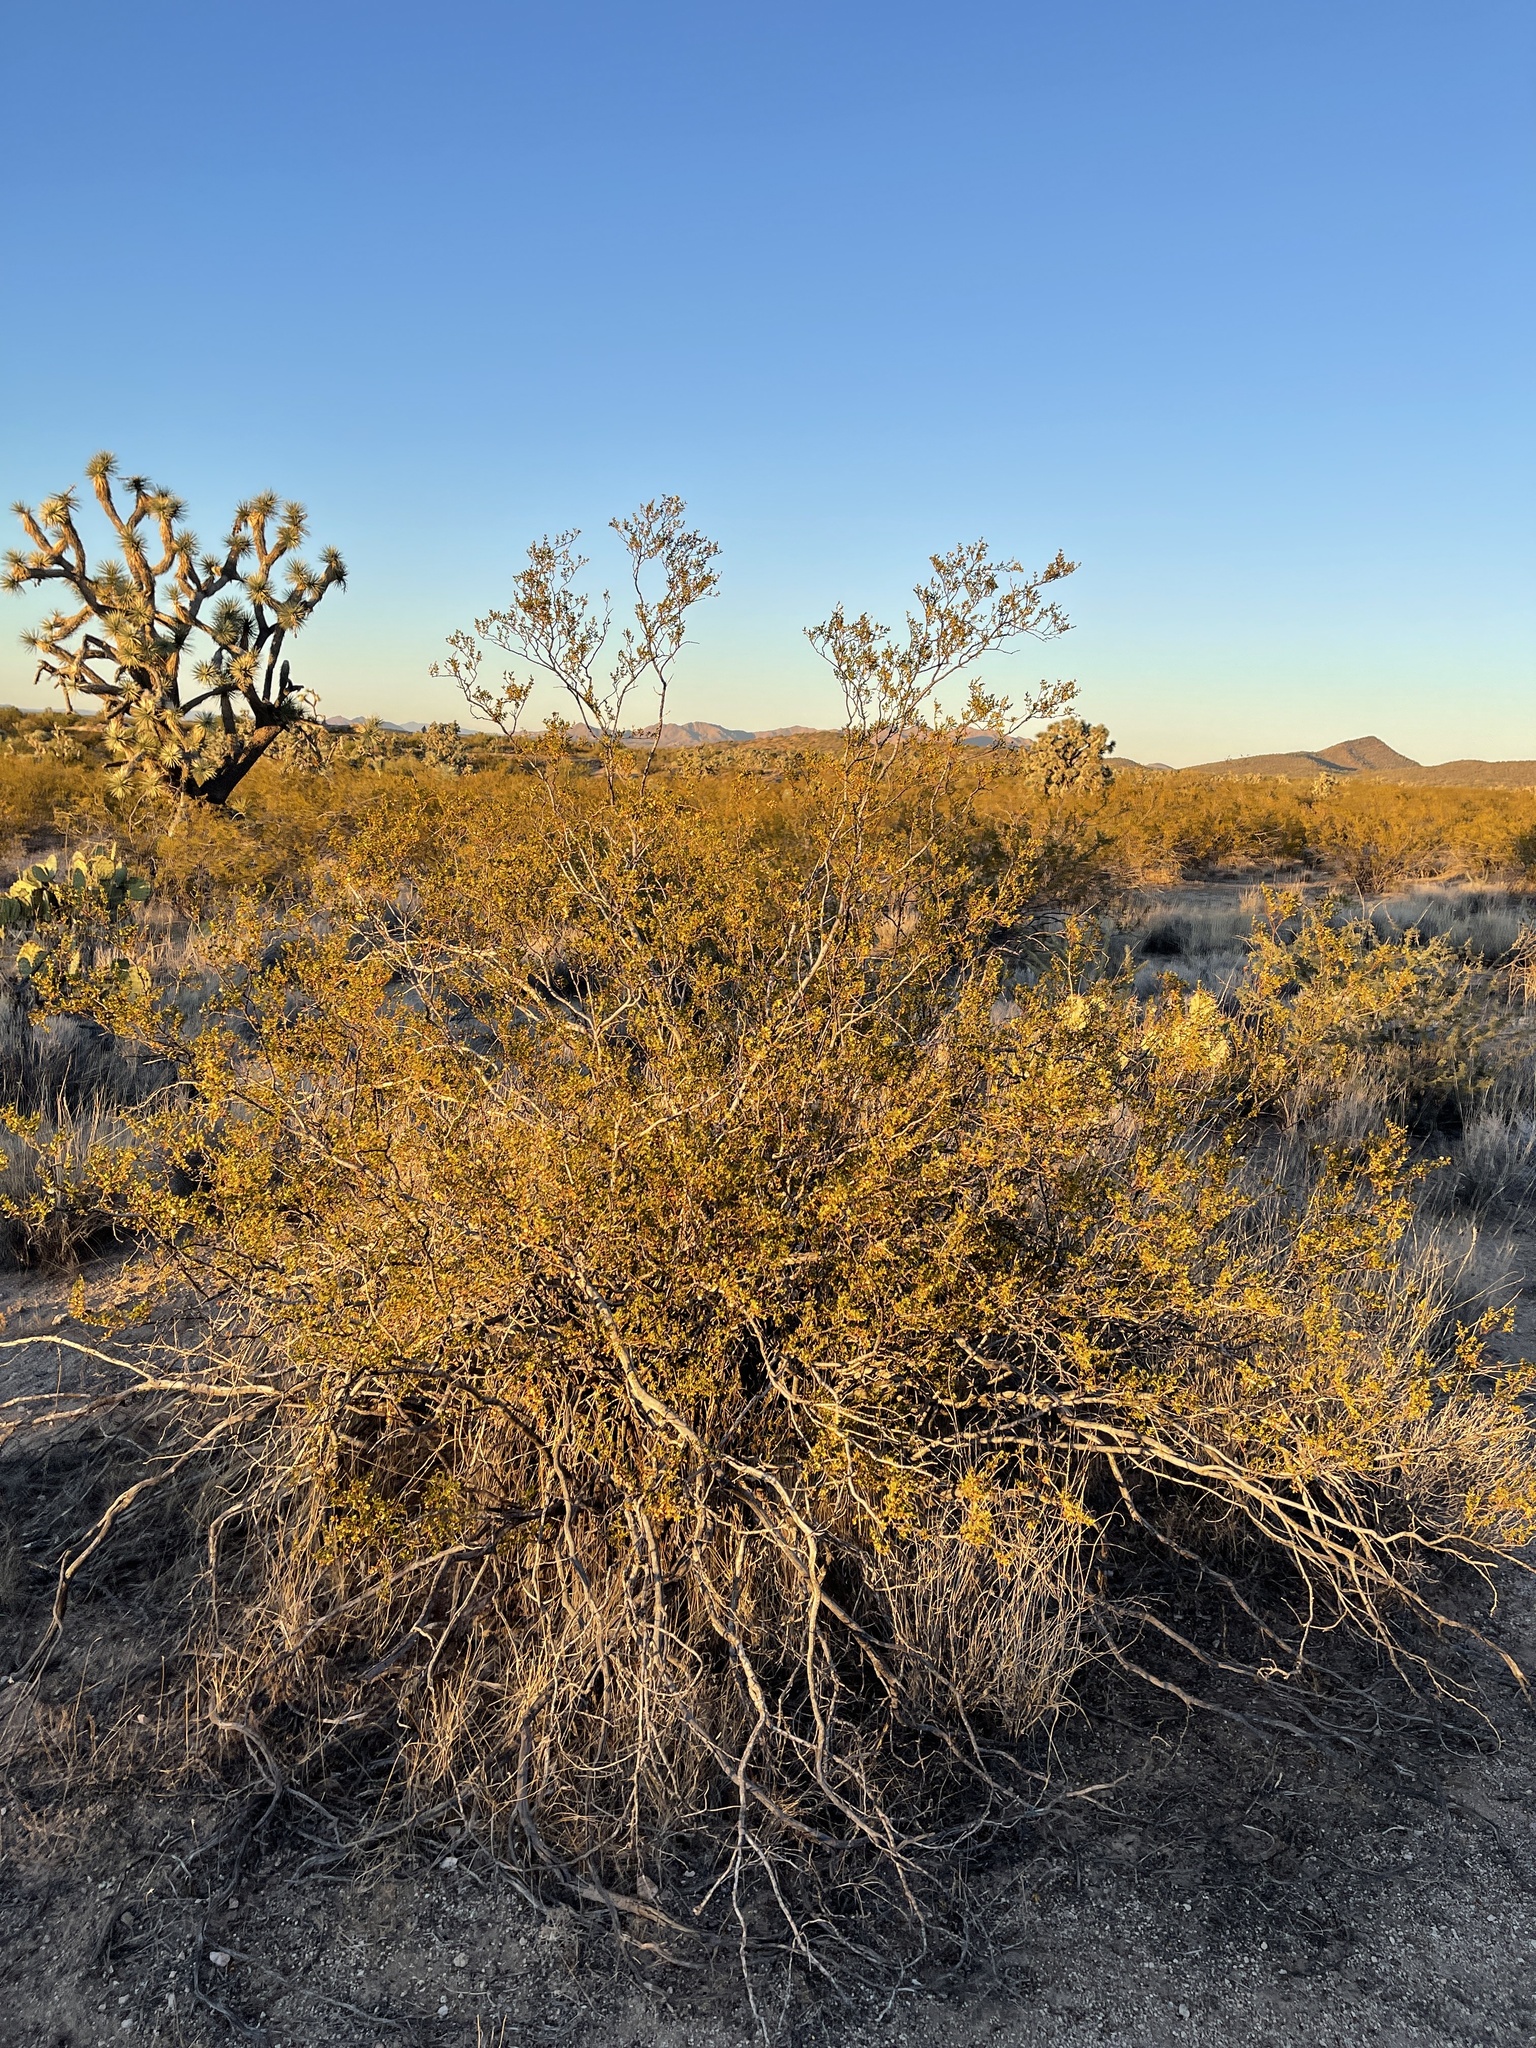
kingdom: Plantae
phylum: Tracheophyta
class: Magnoliopsida
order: Zygophyllales
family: Zygophyllaceae
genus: Larrea
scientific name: Larrea tridentata
